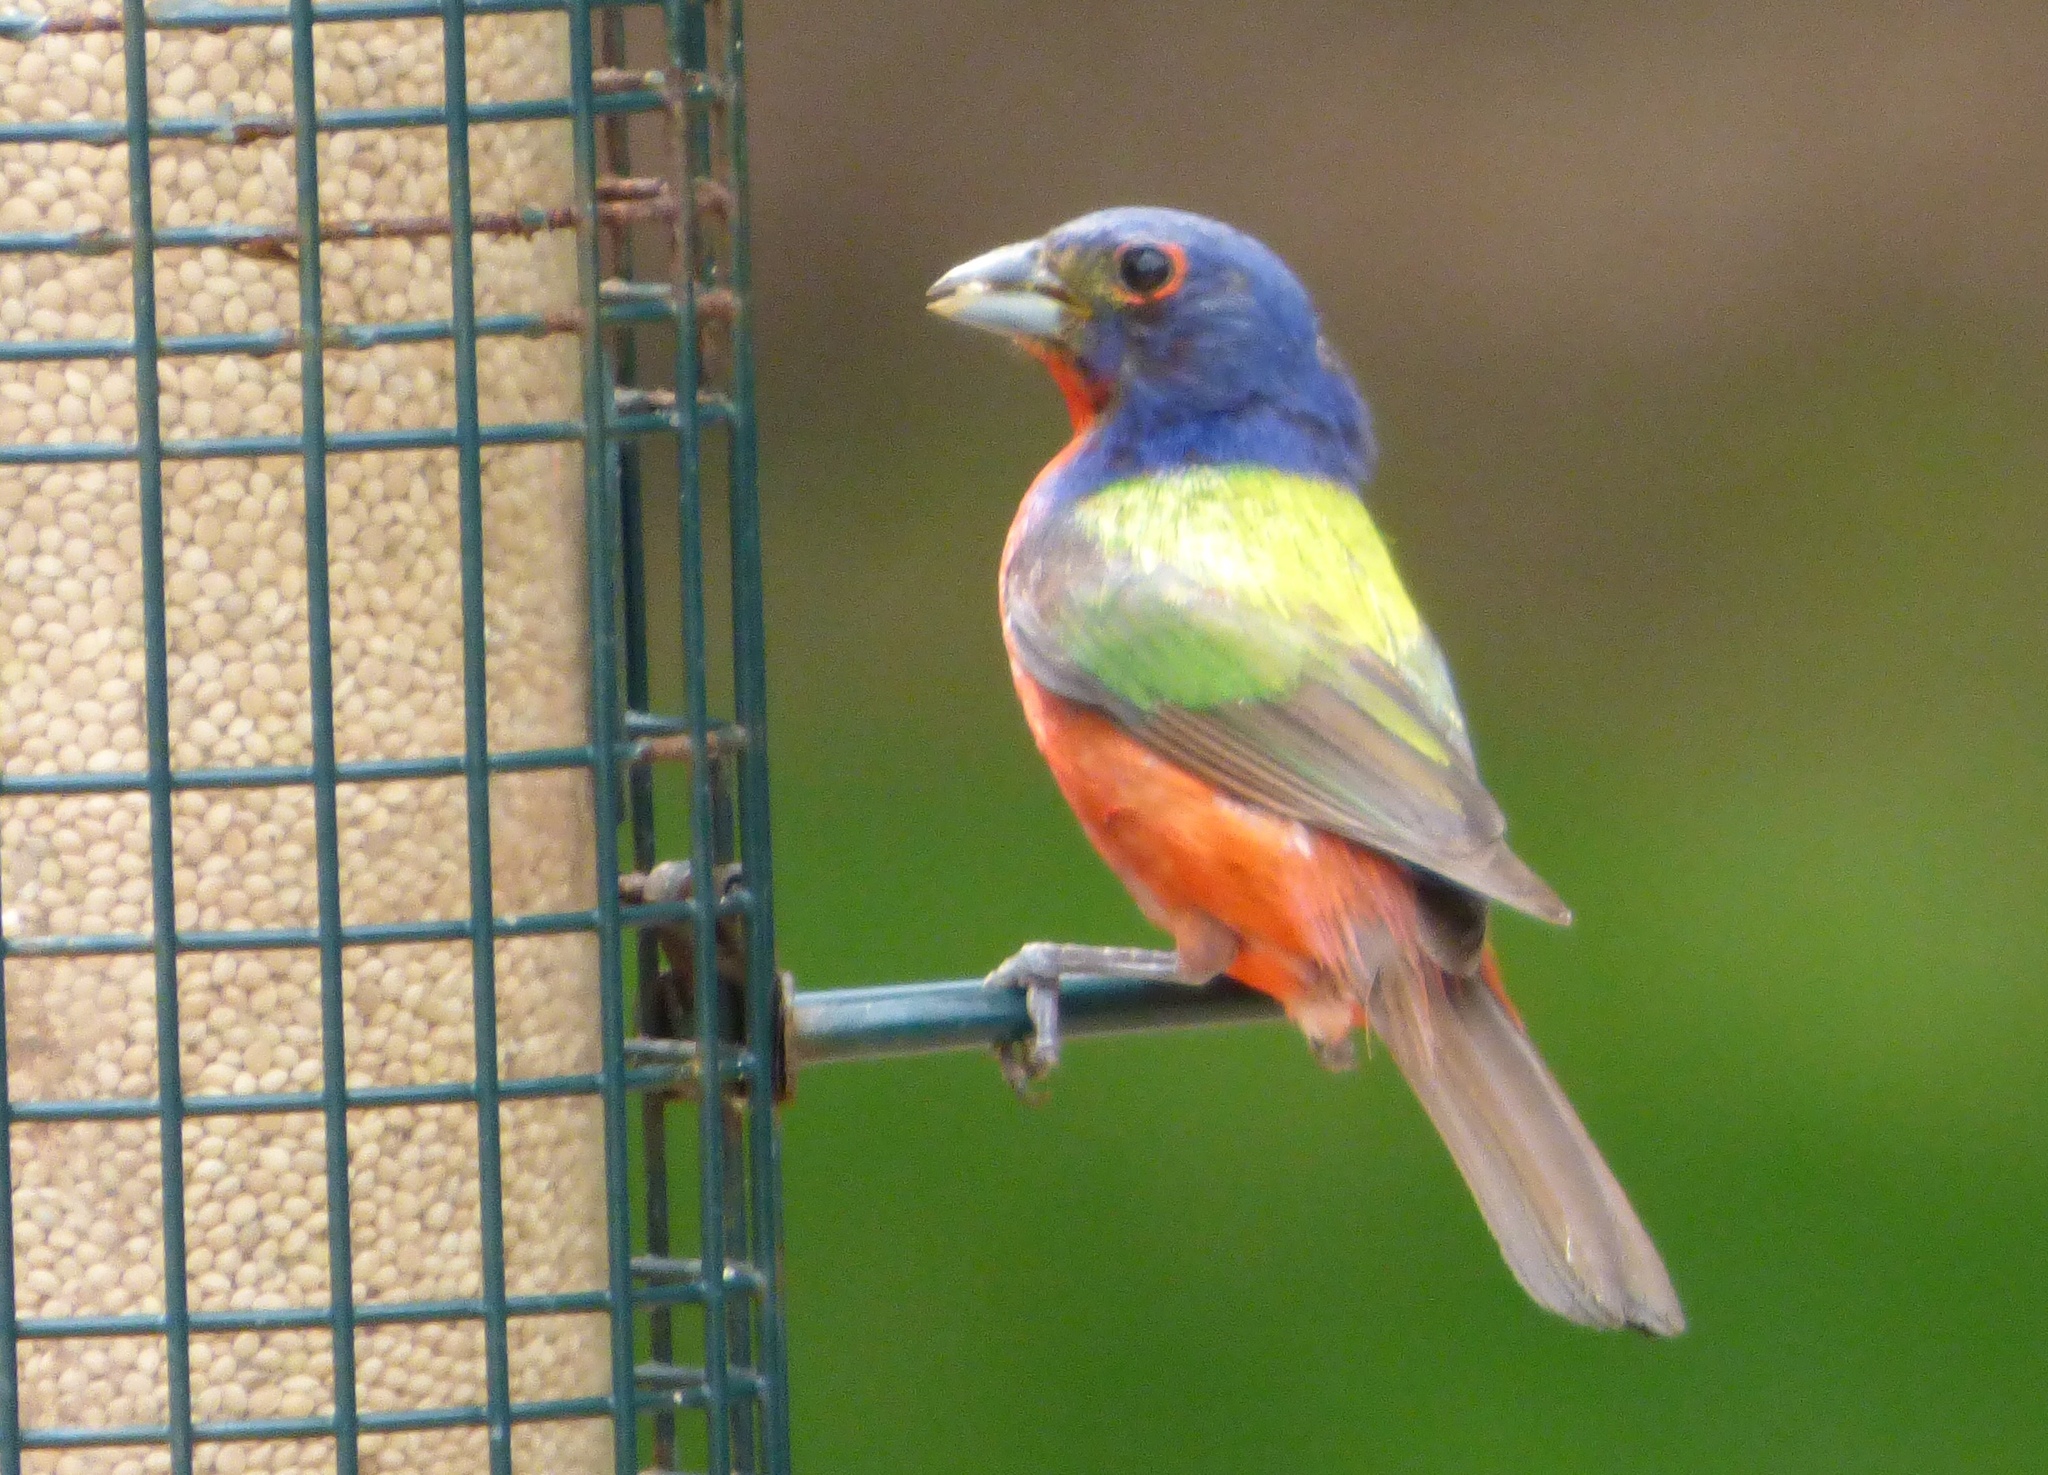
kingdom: Animalia
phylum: Chordata
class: Aves
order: Passeriformes
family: Cardinalidae
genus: Passerina
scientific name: Passerina ciris
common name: Painted bunting
